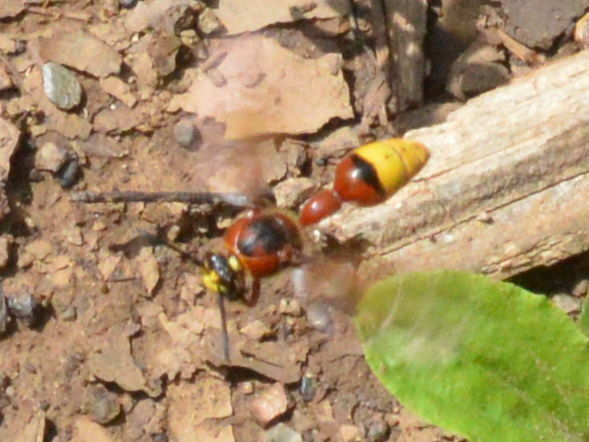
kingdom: Animalia
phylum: Arthropoda
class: Insecta
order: Hymenoptera
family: Eumenidae
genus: Delta
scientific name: Delta unguiculatum
